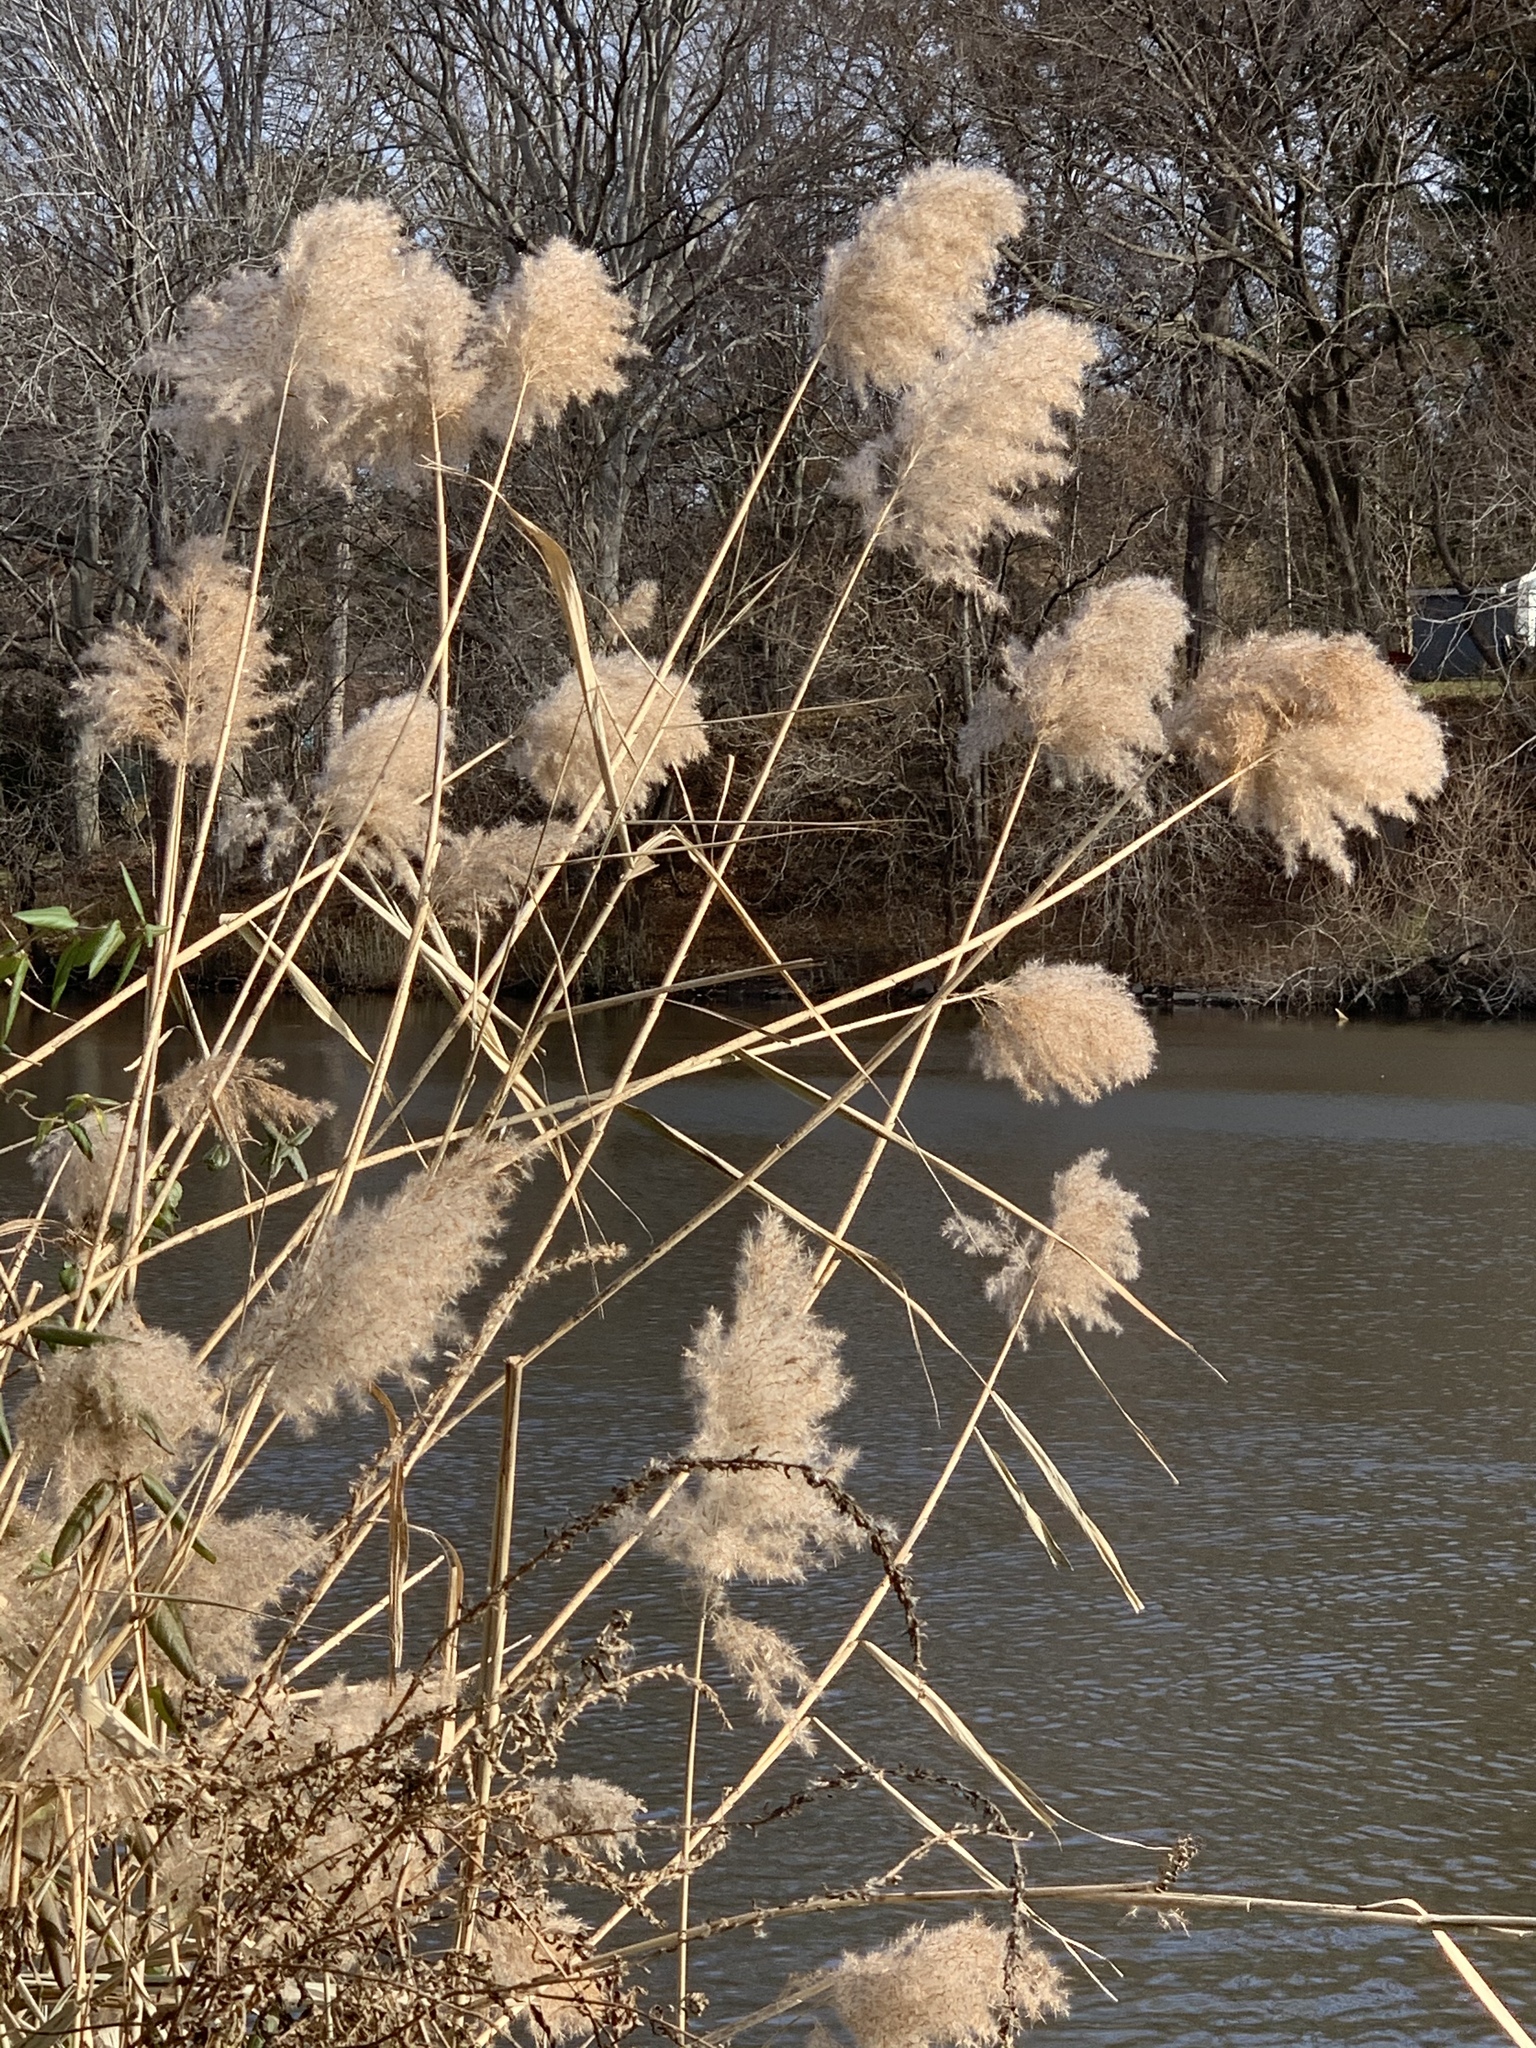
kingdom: Plantae
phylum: Tracheophyta
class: Liliopsida
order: Poales
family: Poaceae
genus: Phragmites
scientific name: Phragmites australis
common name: Common reed
